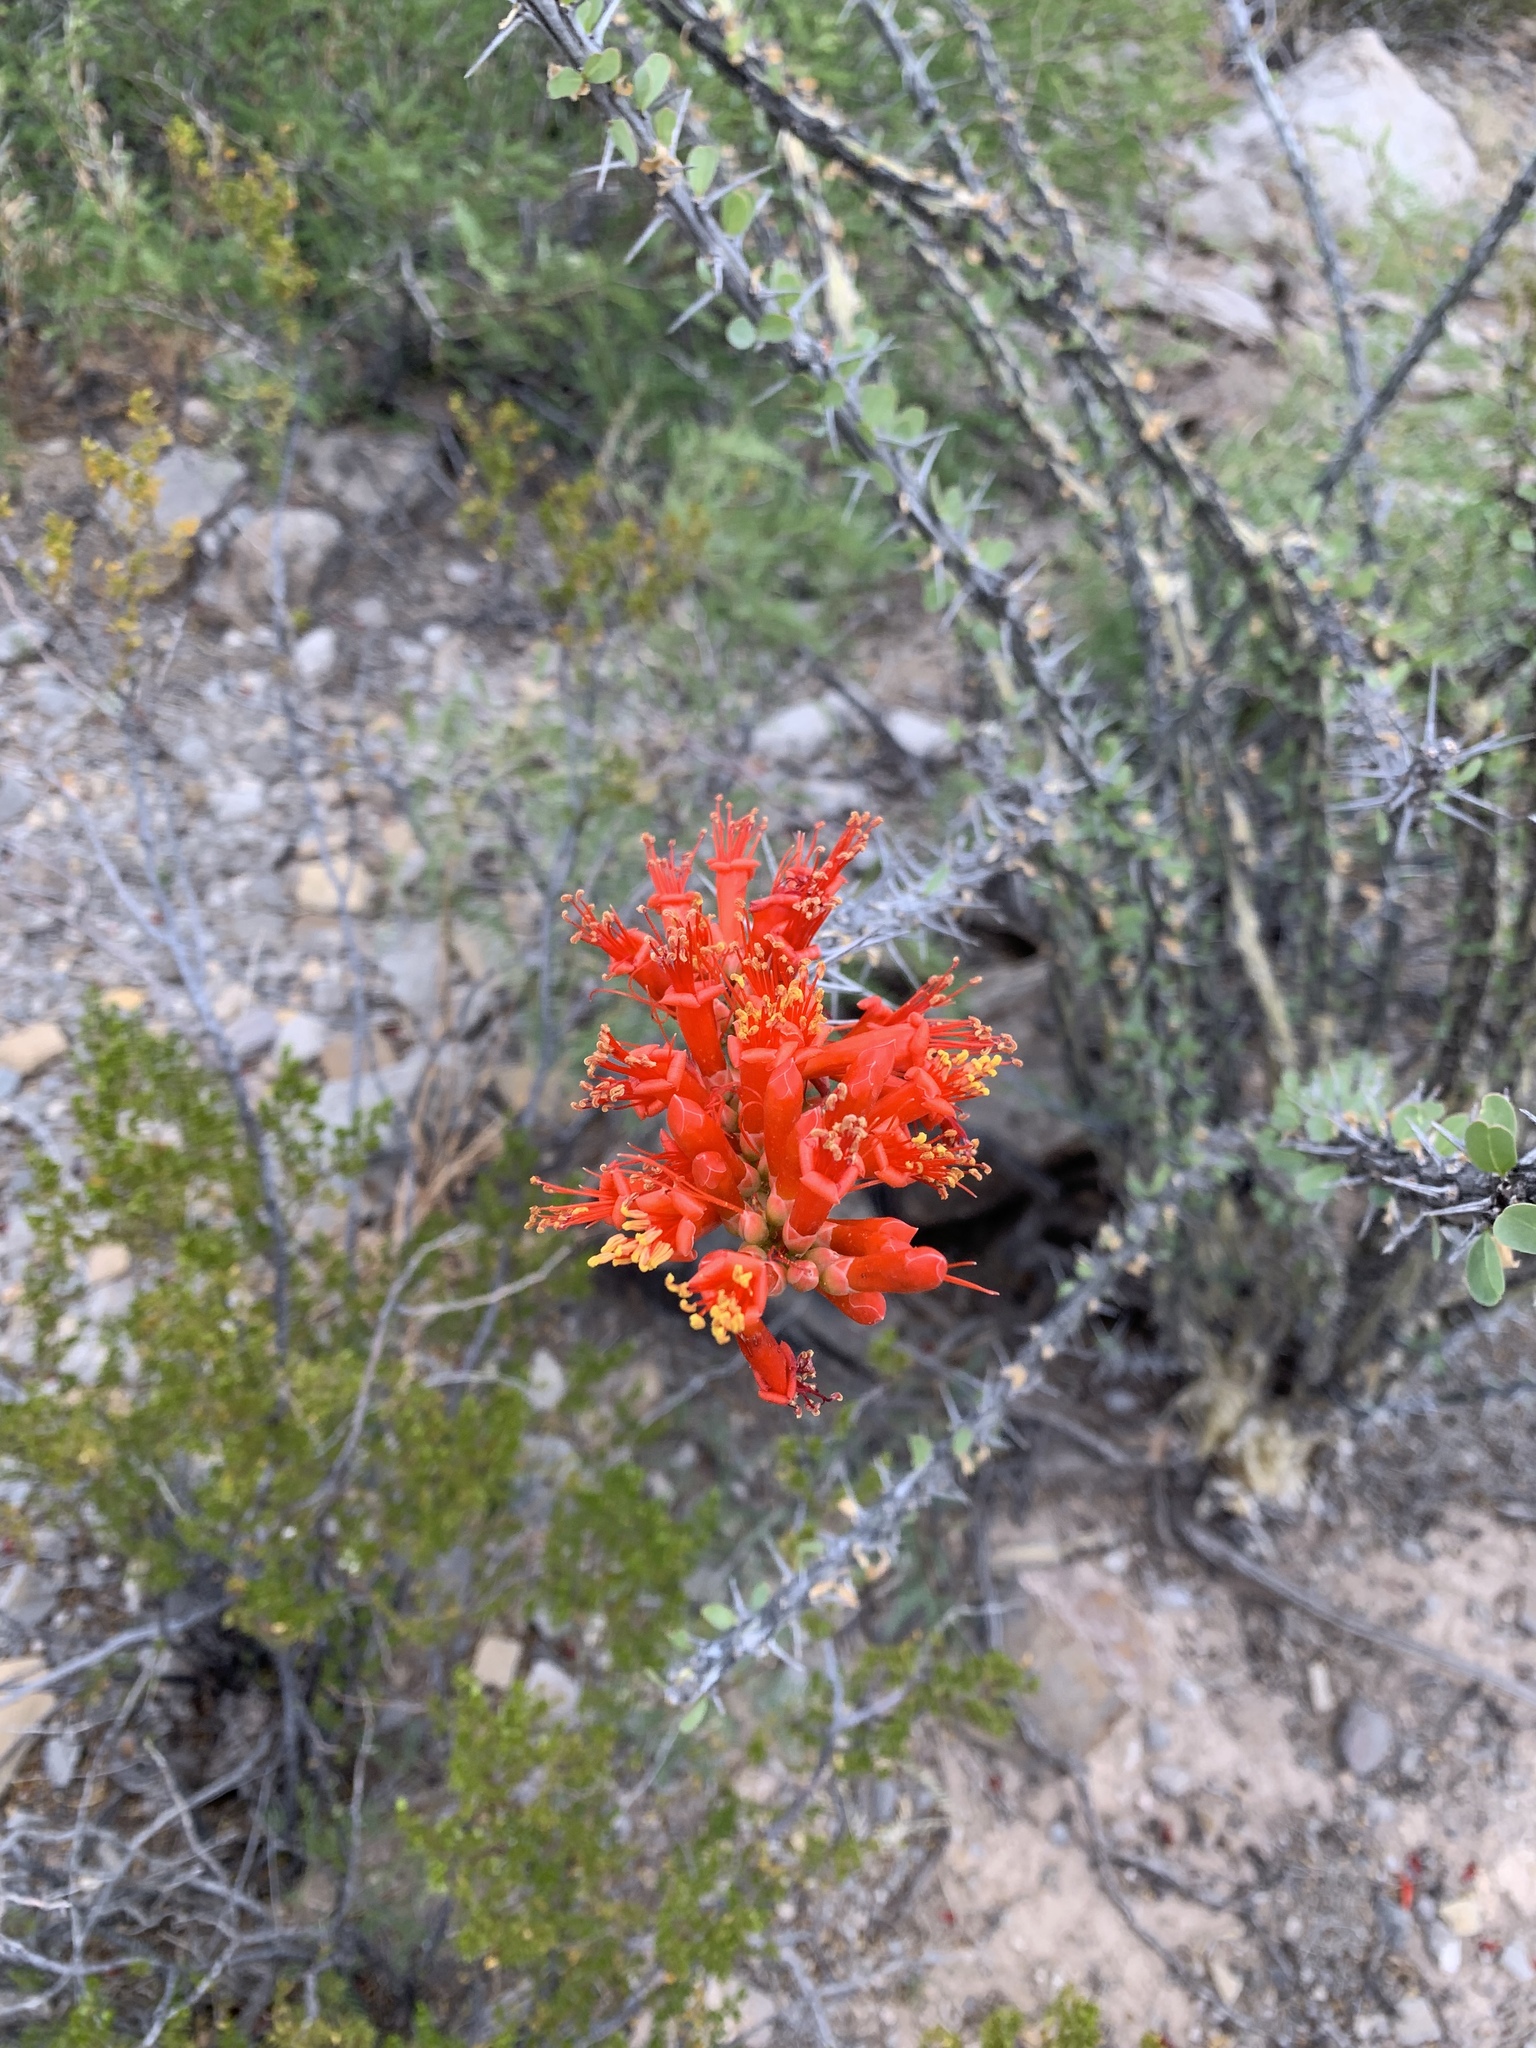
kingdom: Plantae
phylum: Tracheophyta
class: Magnoliopsida
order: Ericales
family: Fouquieriaceae
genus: Fouquieria
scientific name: Fouquieria splendens
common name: Vine-cactus
